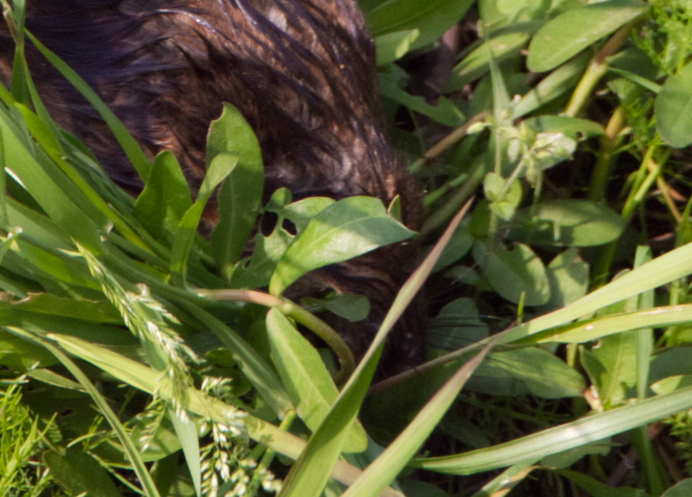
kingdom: Animalia
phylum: Chordata
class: Mammalia
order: Rodentia
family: Cricetidae
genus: Ondatra
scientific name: Ondatra zibethicus
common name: Muskrat
